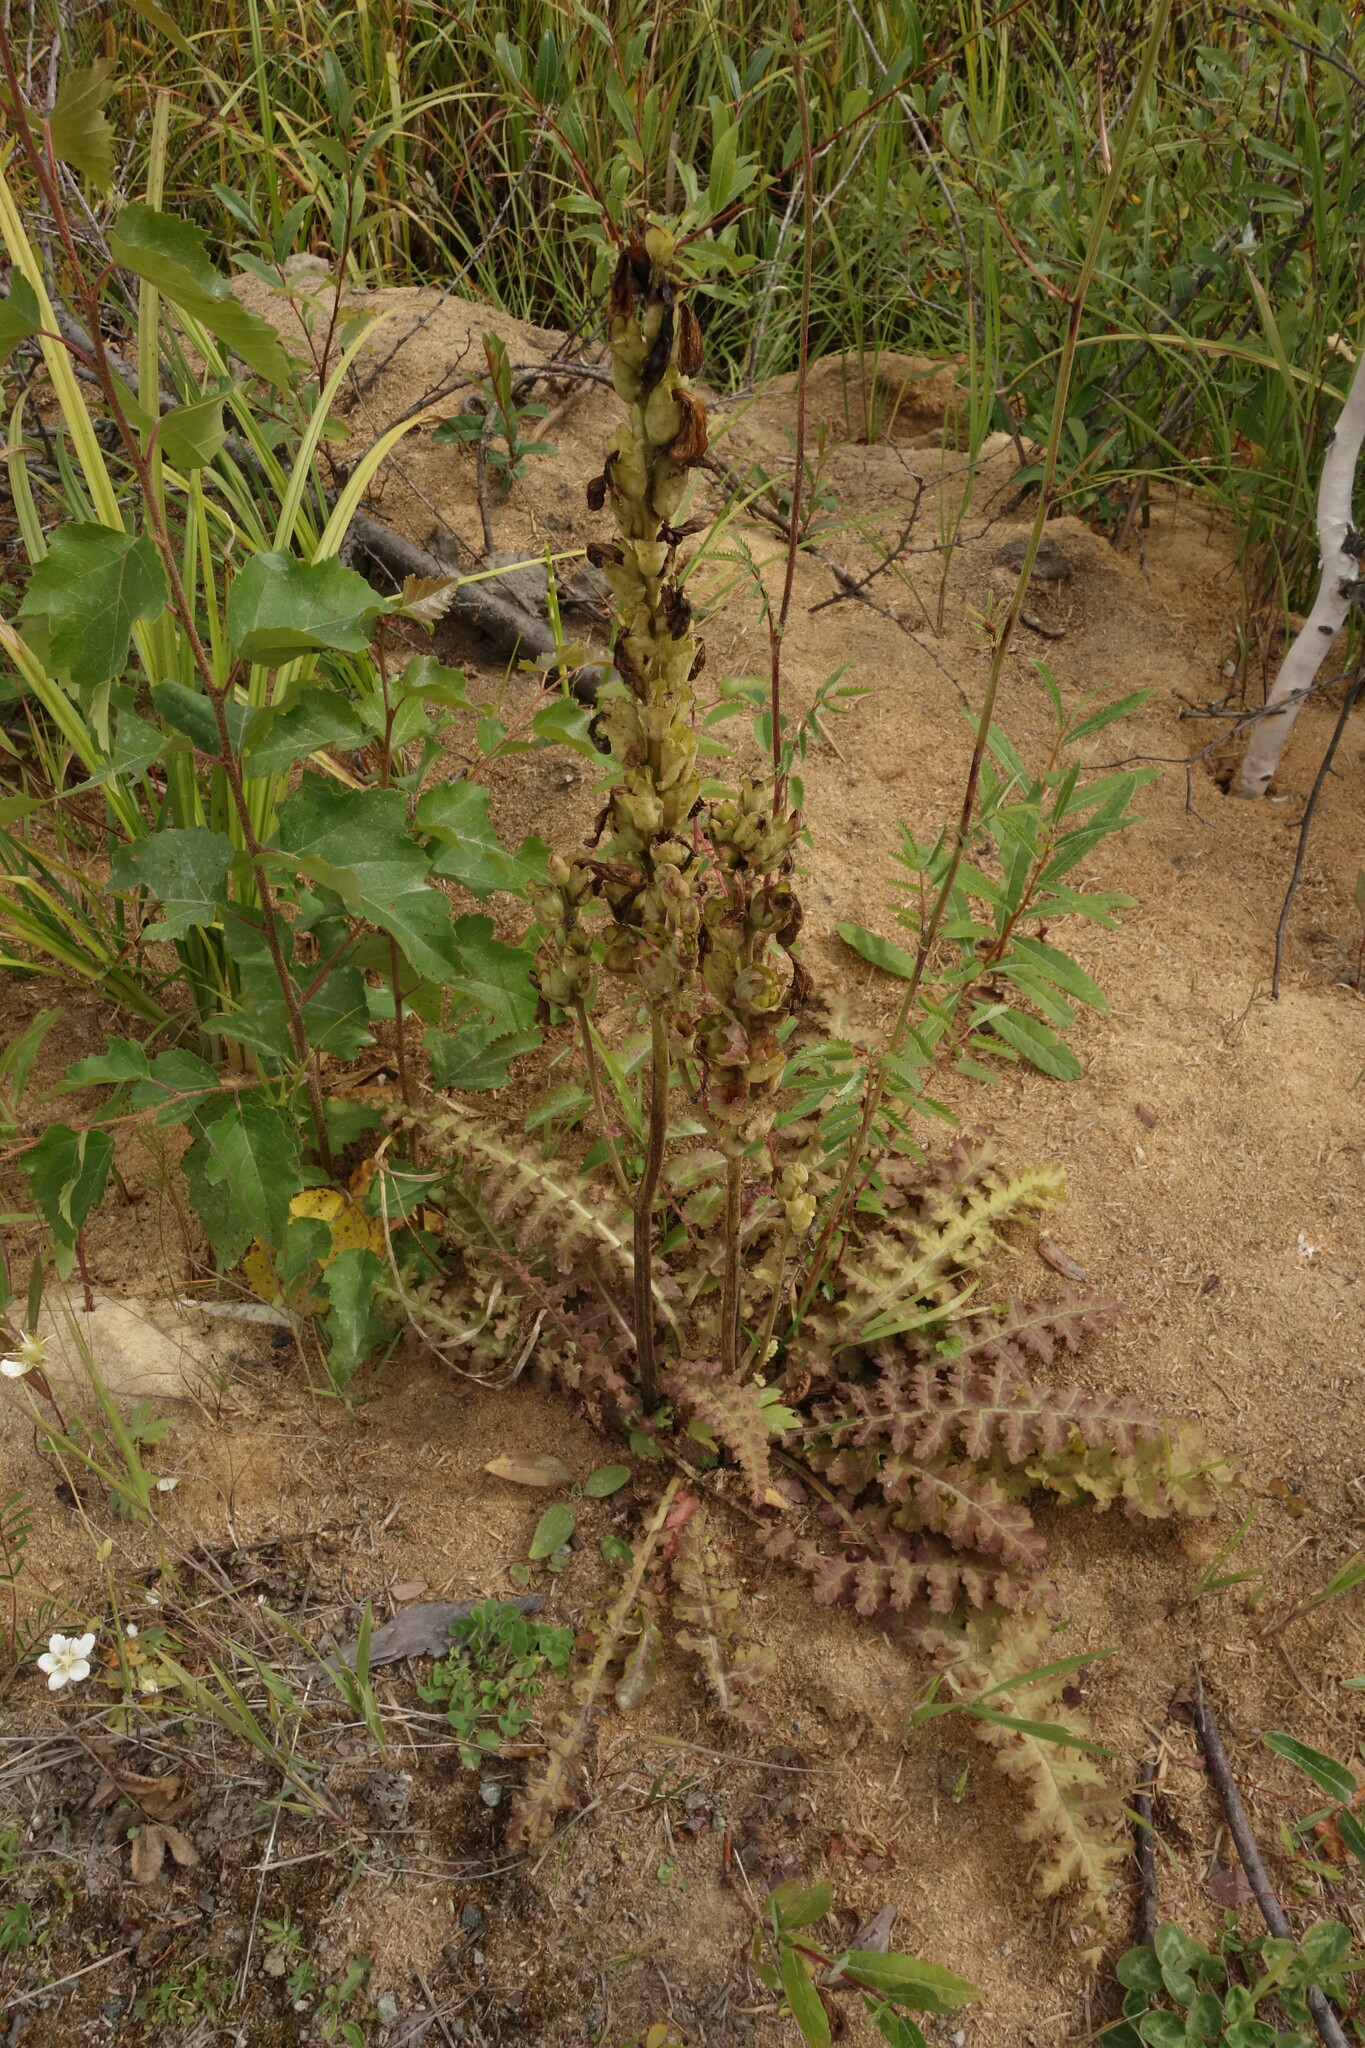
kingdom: Plantae
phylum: Tracheophyta
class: Magnoliopsida
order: Lamiales
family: Orobanchaceae
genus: Pedicularis
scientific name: Pedicularis sceptrum-carolinum
